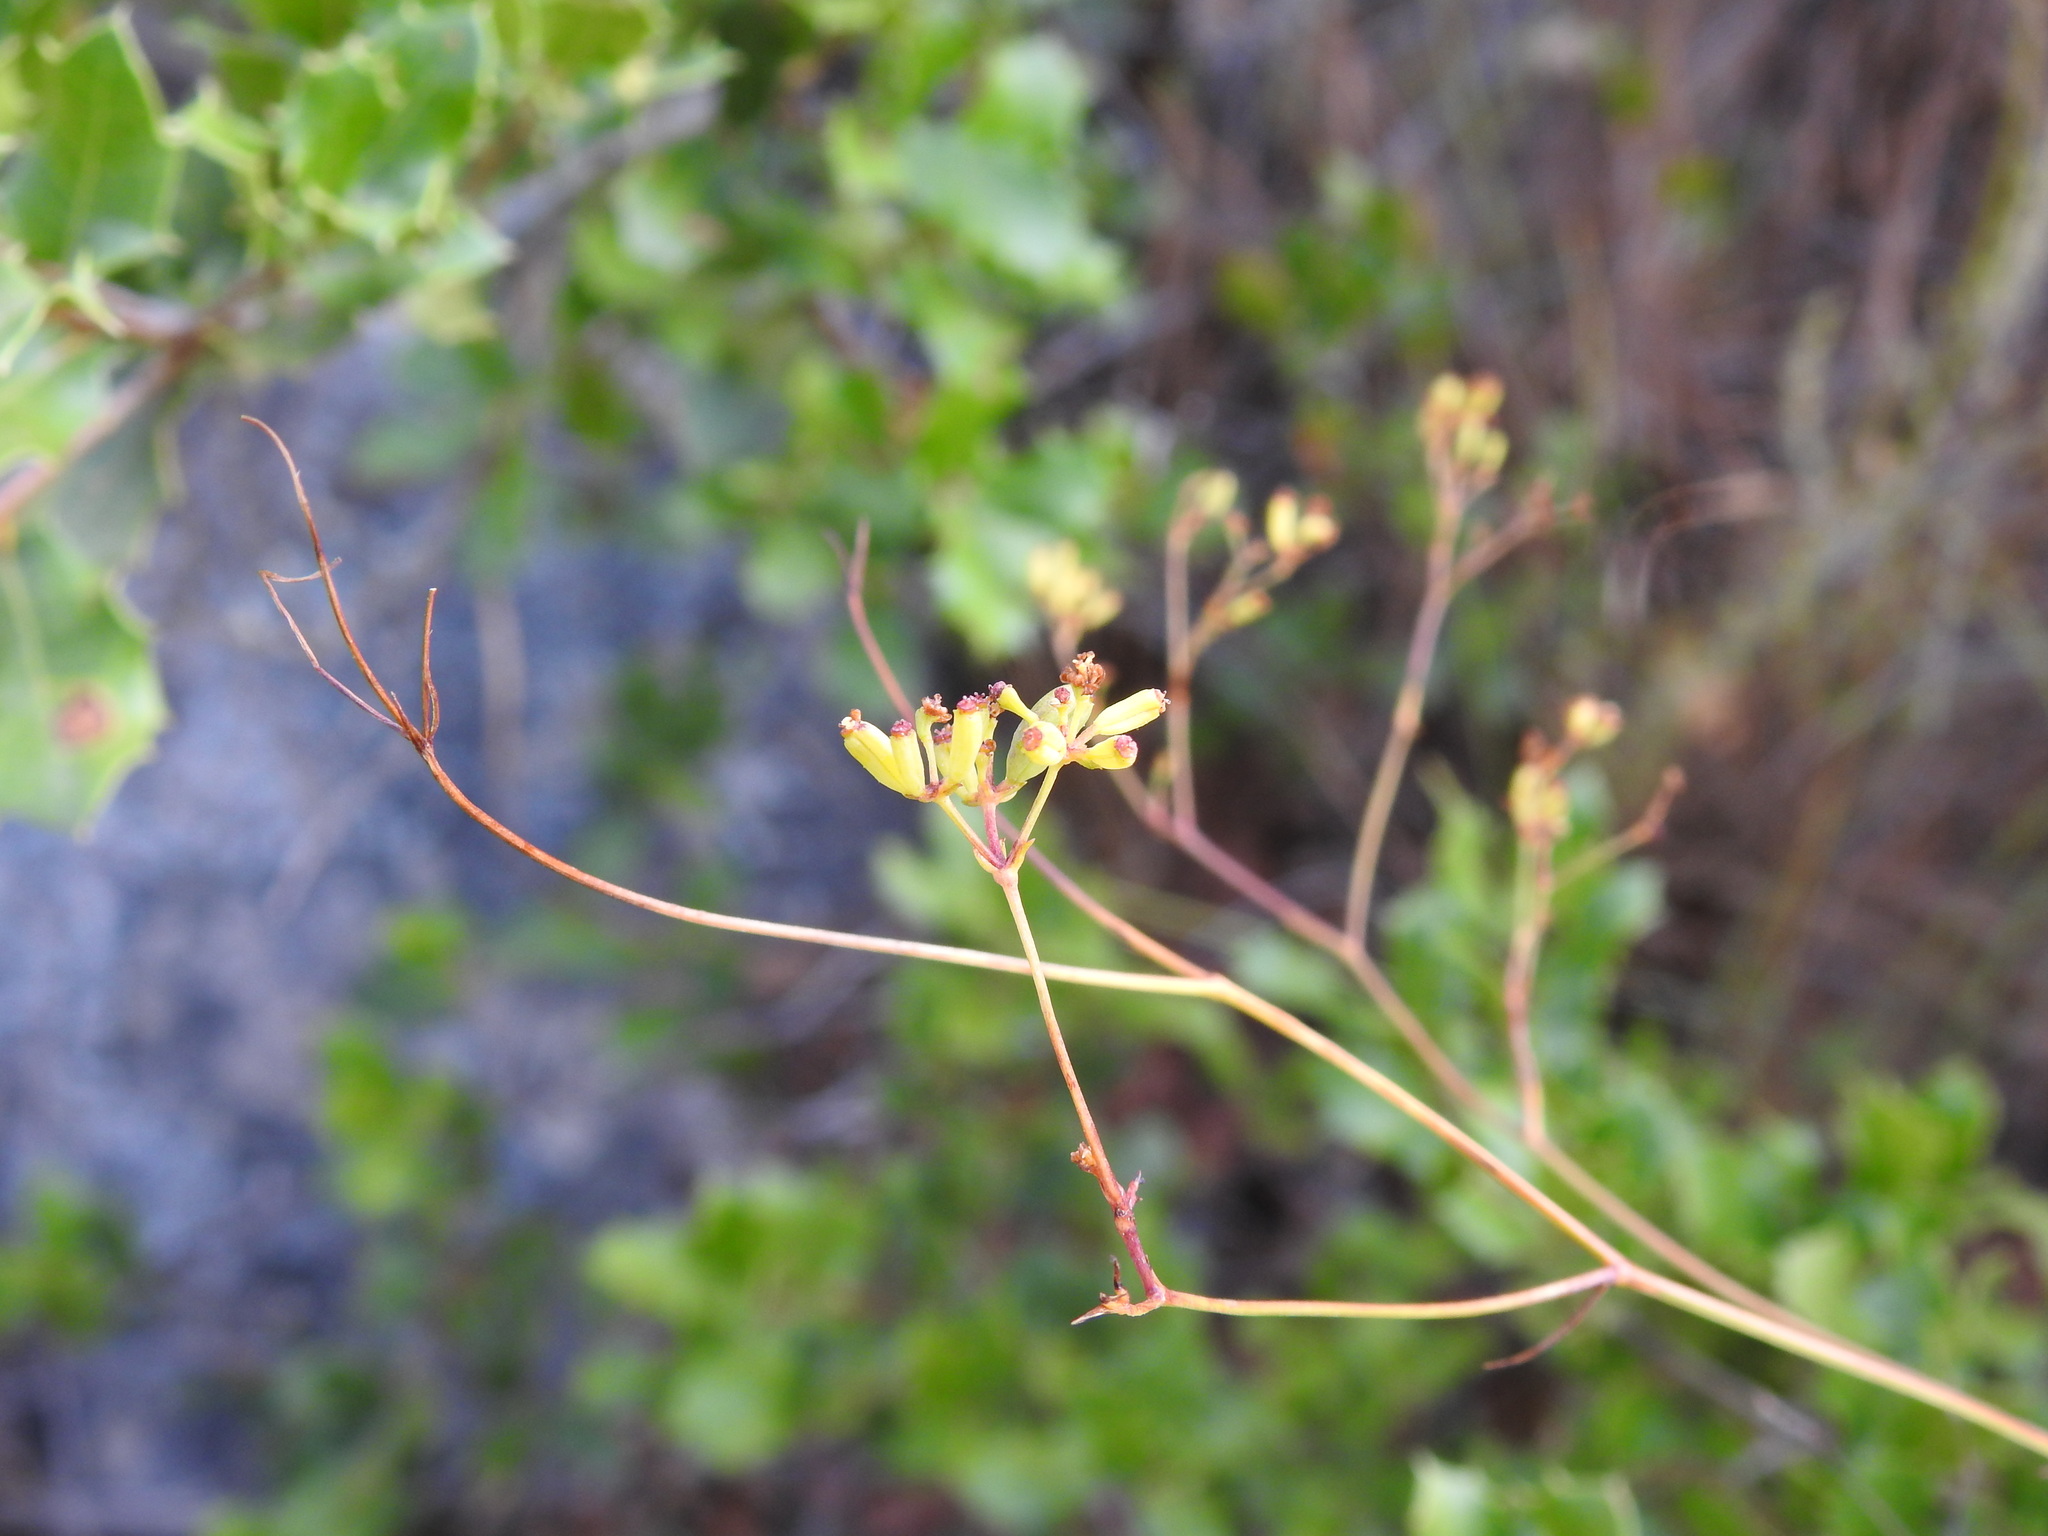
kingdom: Plantae
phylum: Tracheophyta
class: Magnoliopsida
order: Apiales
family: Apiaceae
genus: Bupleurum
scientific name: Bupleurum rigidum
